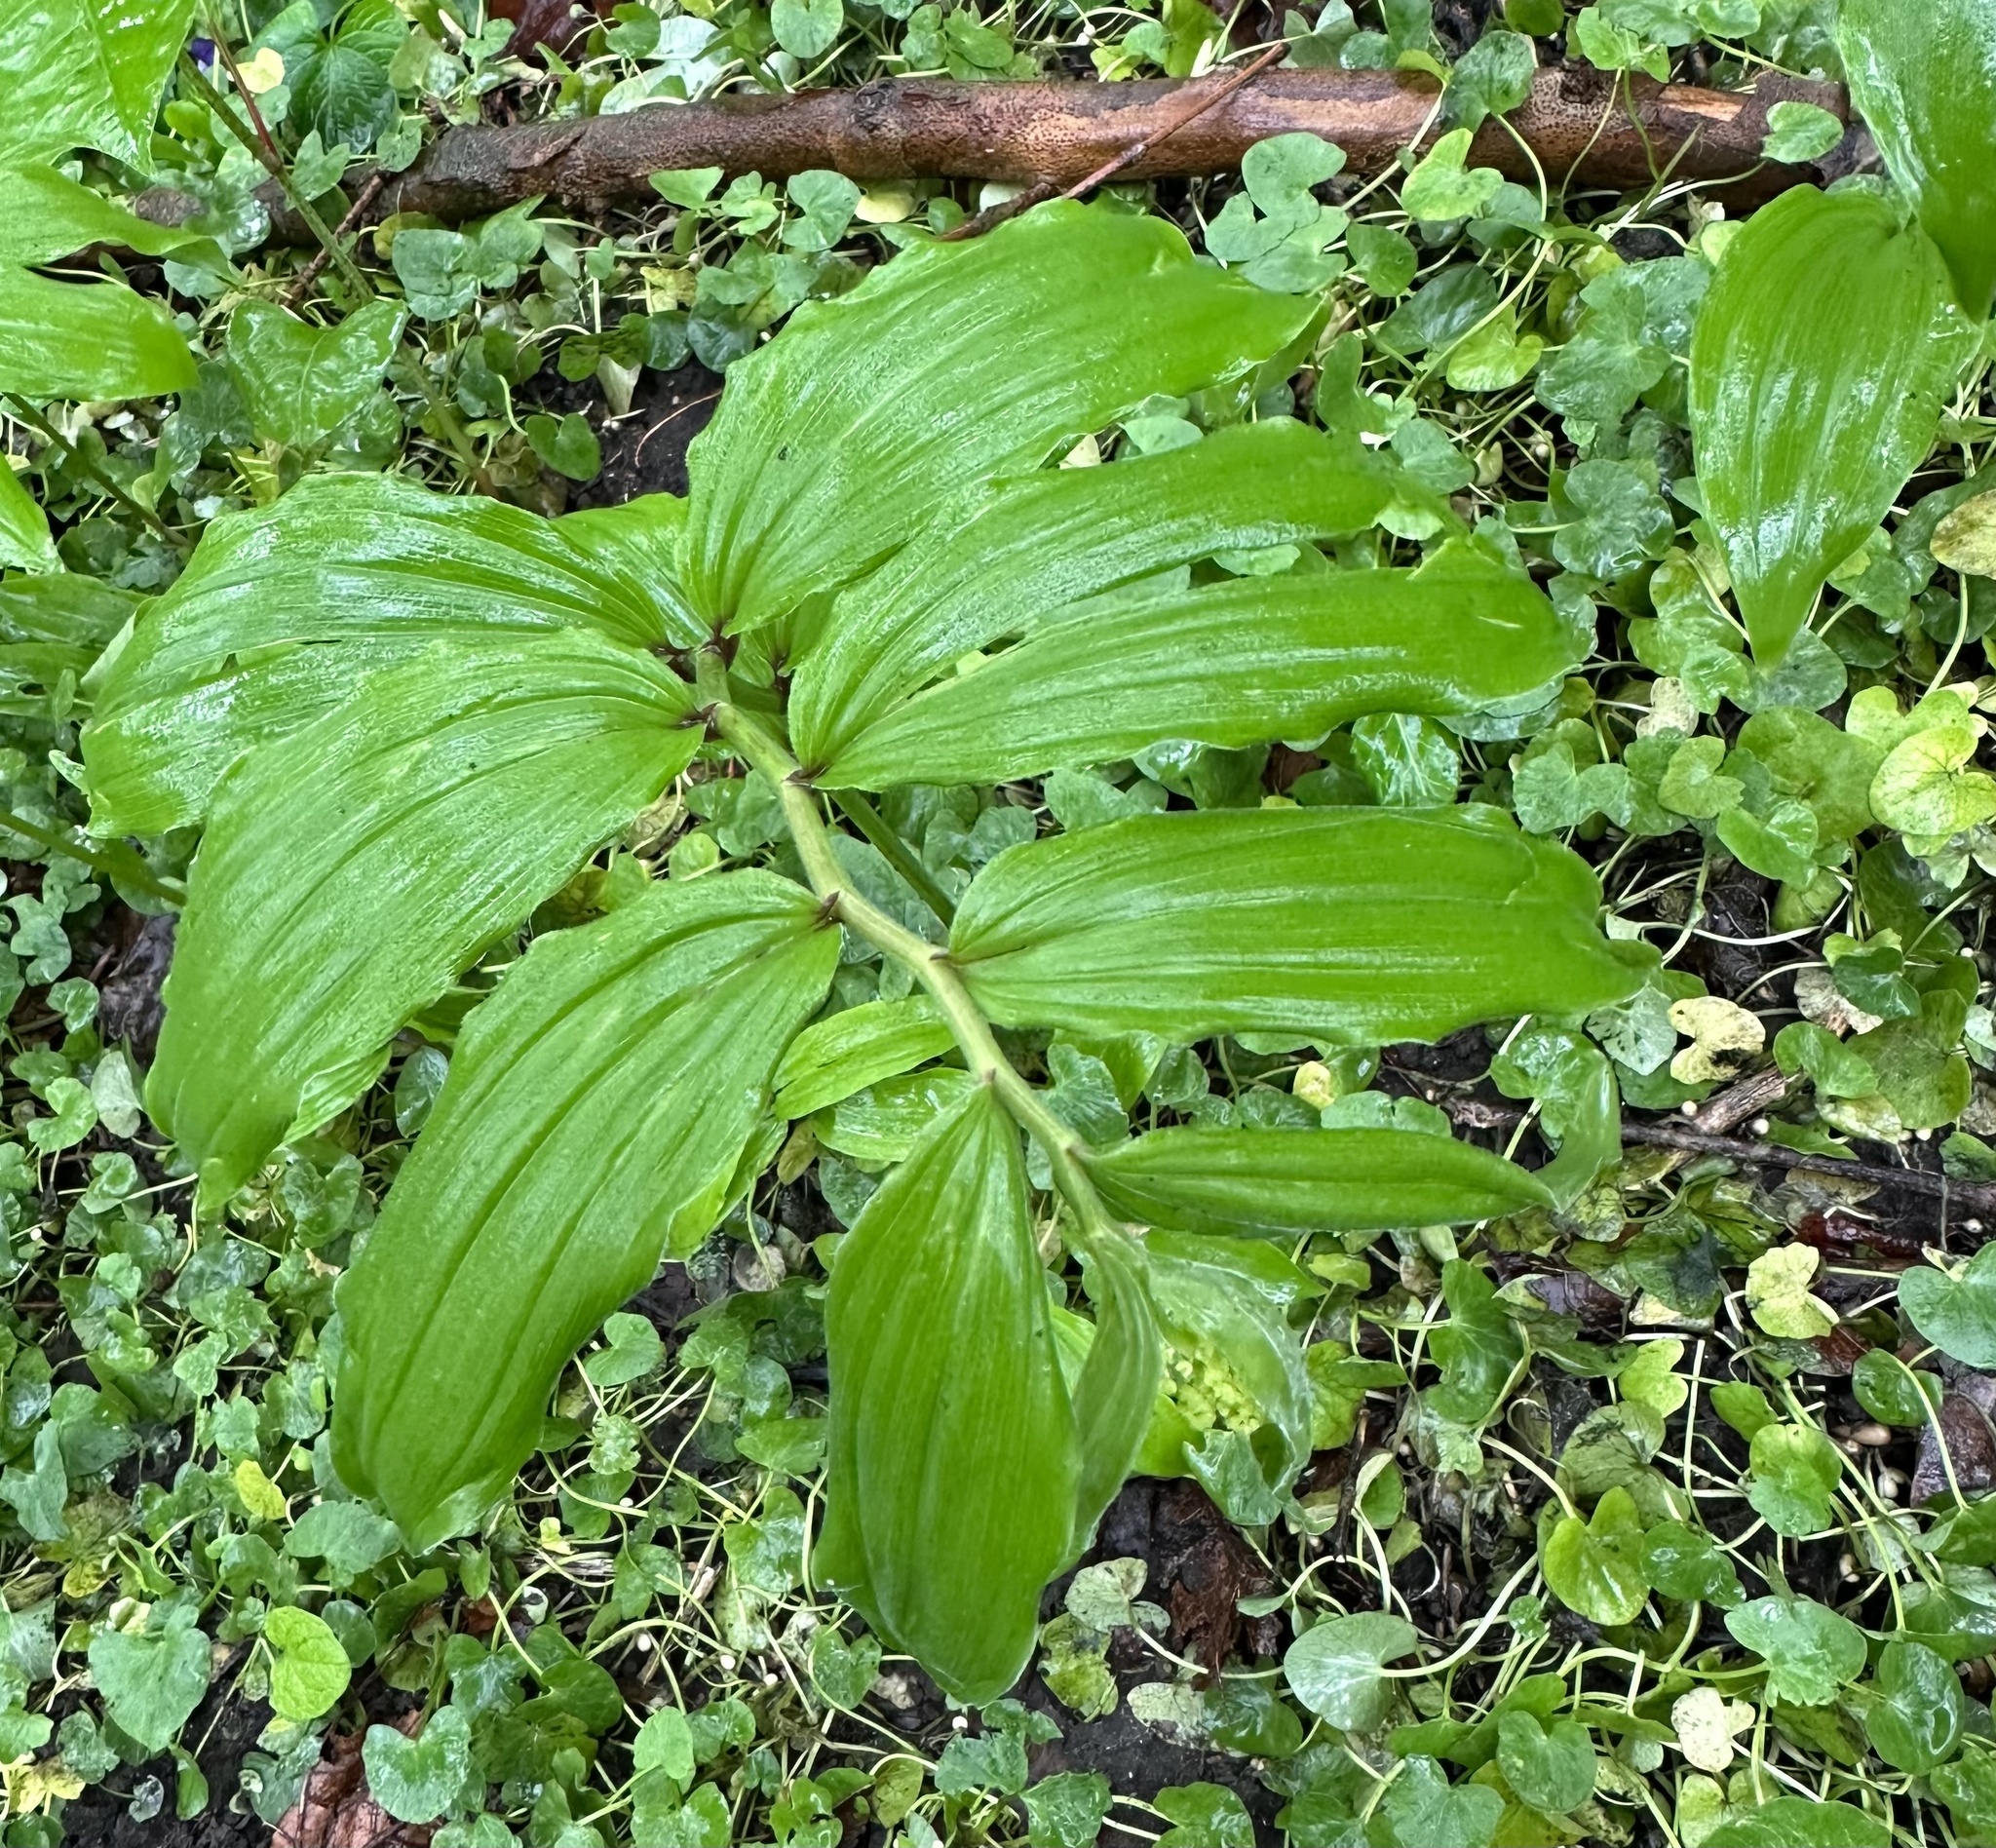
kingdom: Plantae
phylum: Tracheophyta
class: Liliopsida
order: Asparagales
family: Asparagaceae
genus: Maianthemum
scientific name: Maianthemum racemosum
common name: False spikenard
